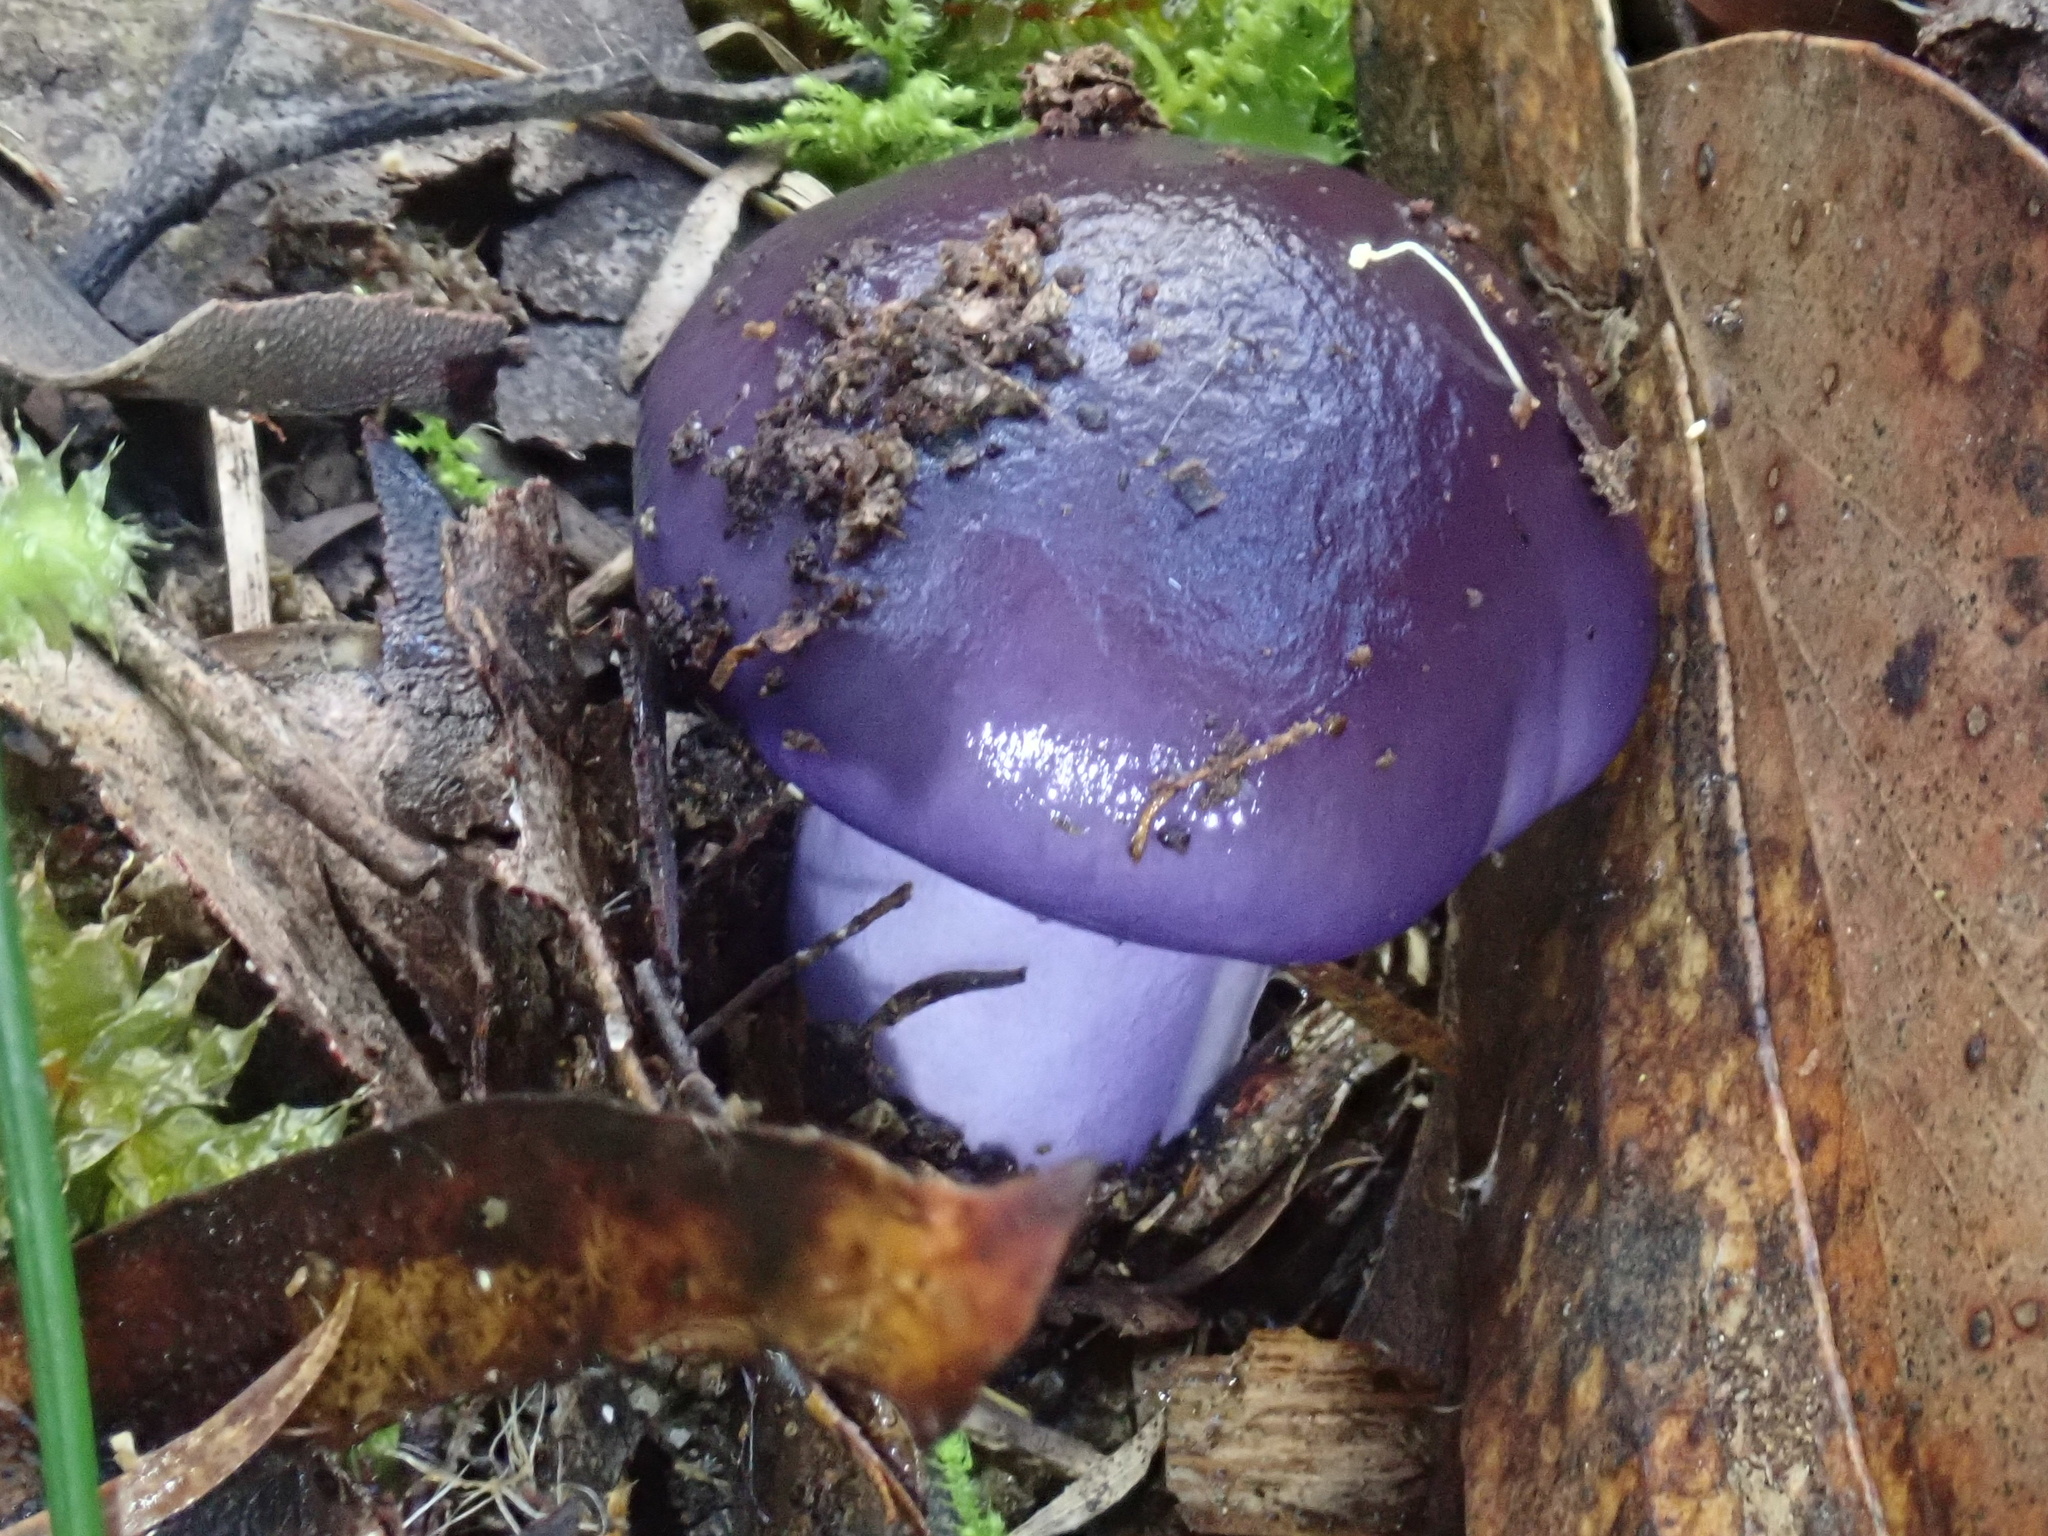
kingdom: Fungi
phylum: Basidiomycota
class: Agaricomycetes
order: Agaricales
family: Cortinariaceae
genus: Cortinarius
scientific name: Cortinarius archeri
